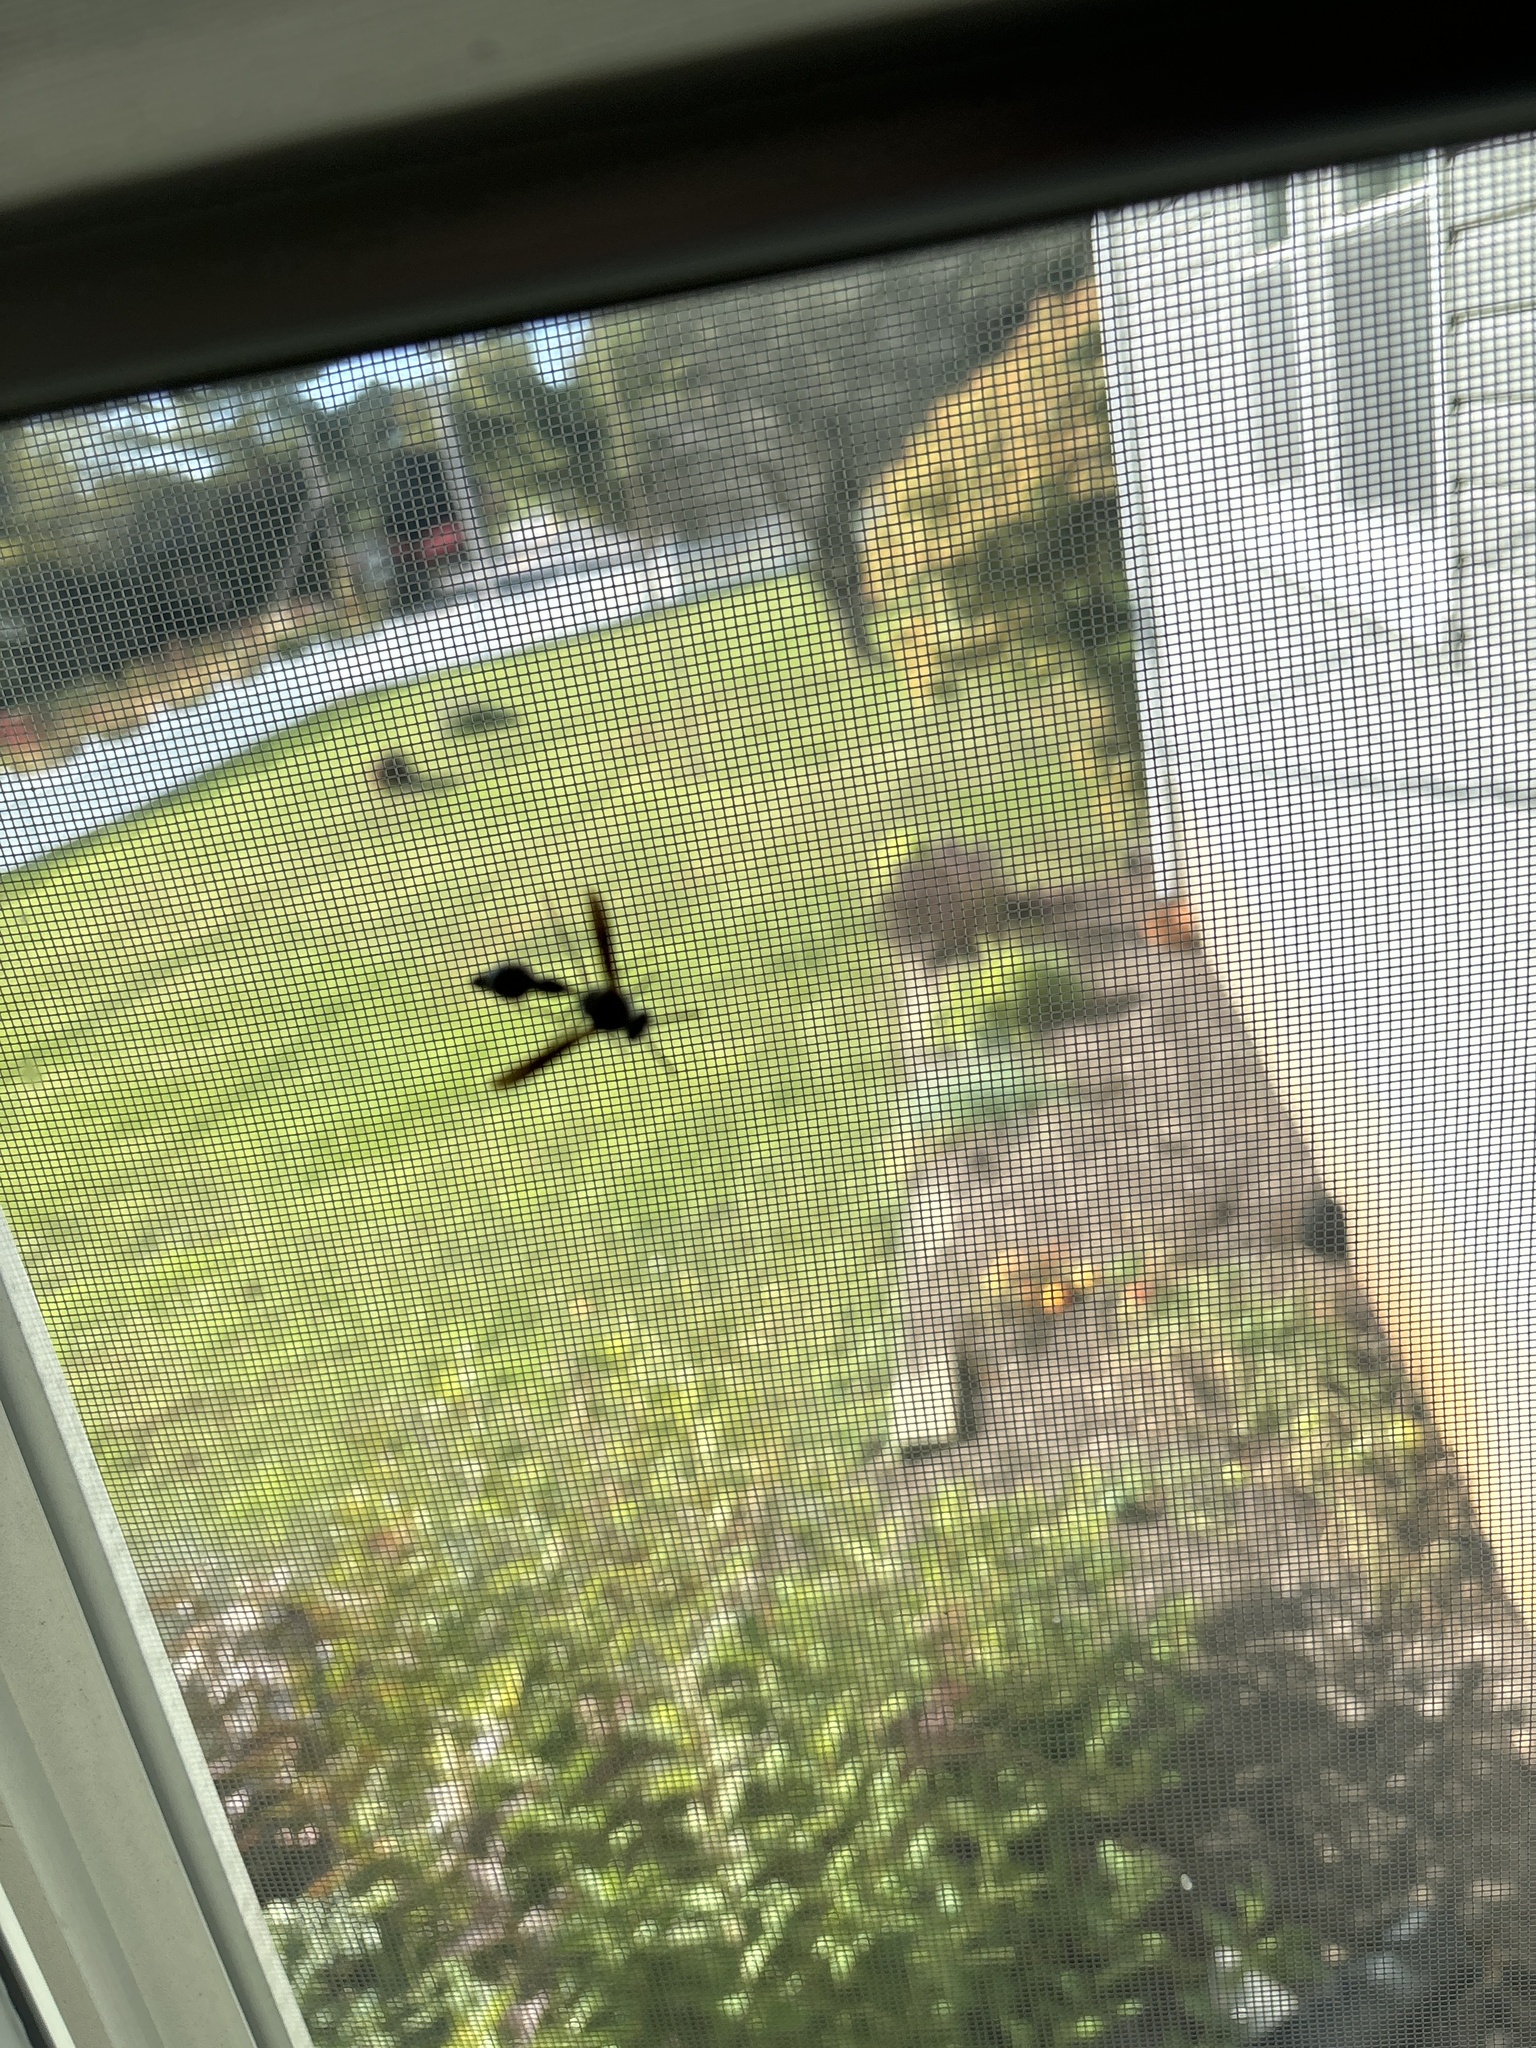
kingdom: Animalia
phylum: Arthropoda
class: Insecta
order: Hymenoptera
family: Vespidae
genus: Eumenes
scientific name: Eumenes fraternus
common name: Fraternal potter wasp
